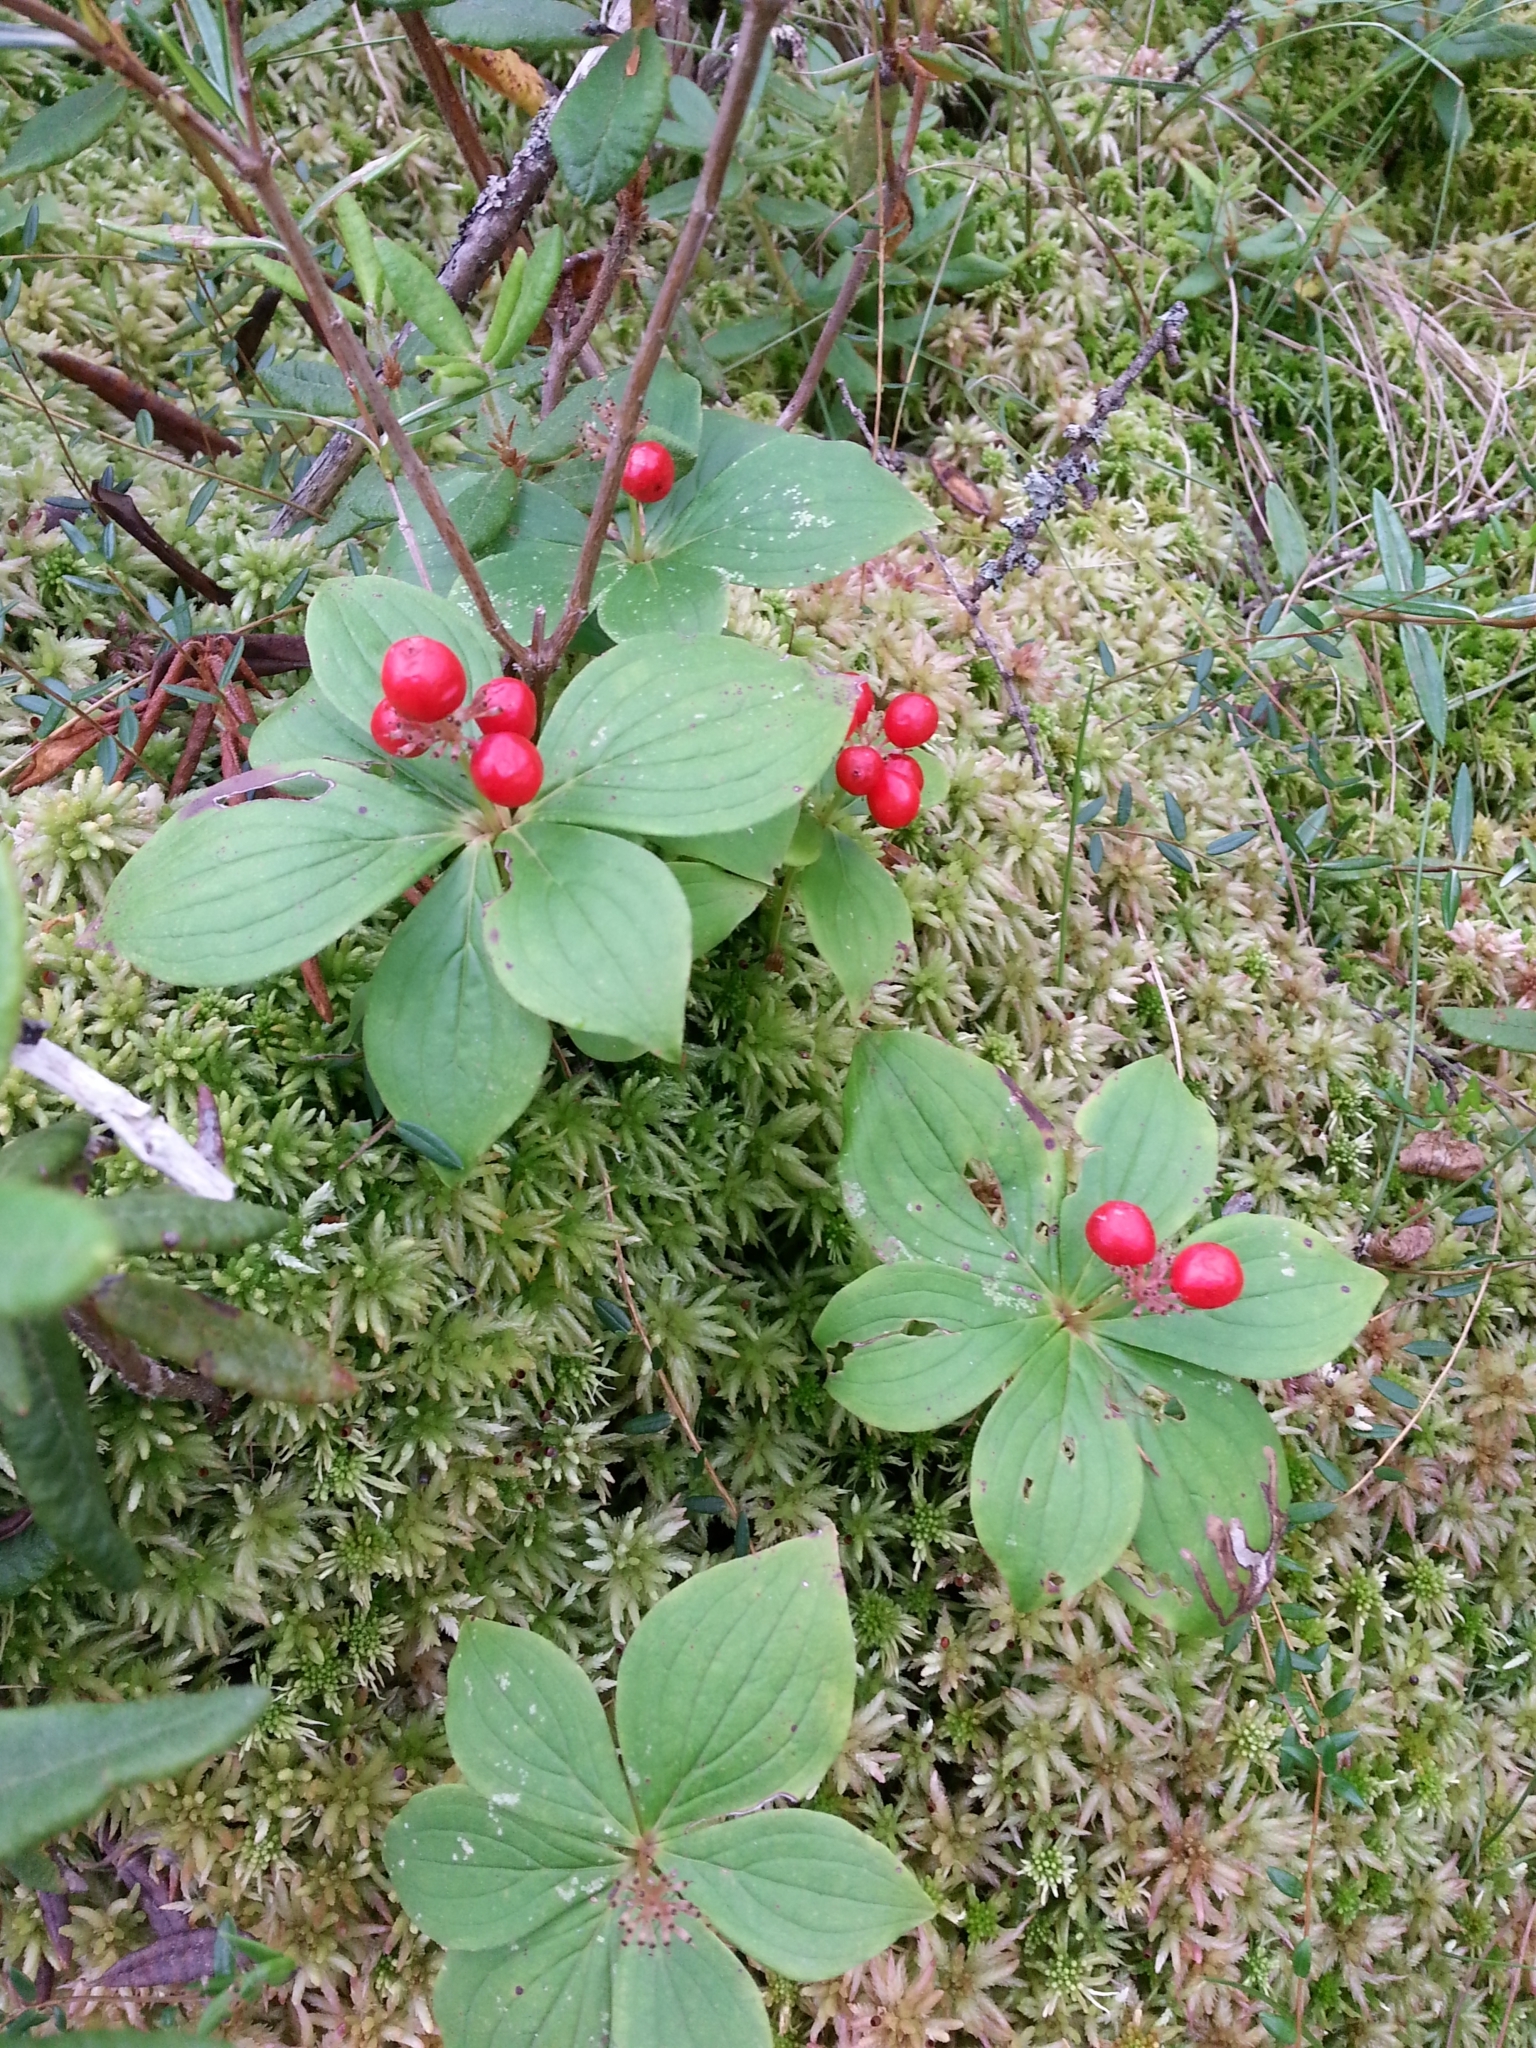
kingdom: Plantae
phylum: Tracheophyta
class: Magnoliopsida
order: Cornales
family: Cornaceae
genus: Cornus
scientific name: Cornus canadensis
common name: Creeping dogwood
